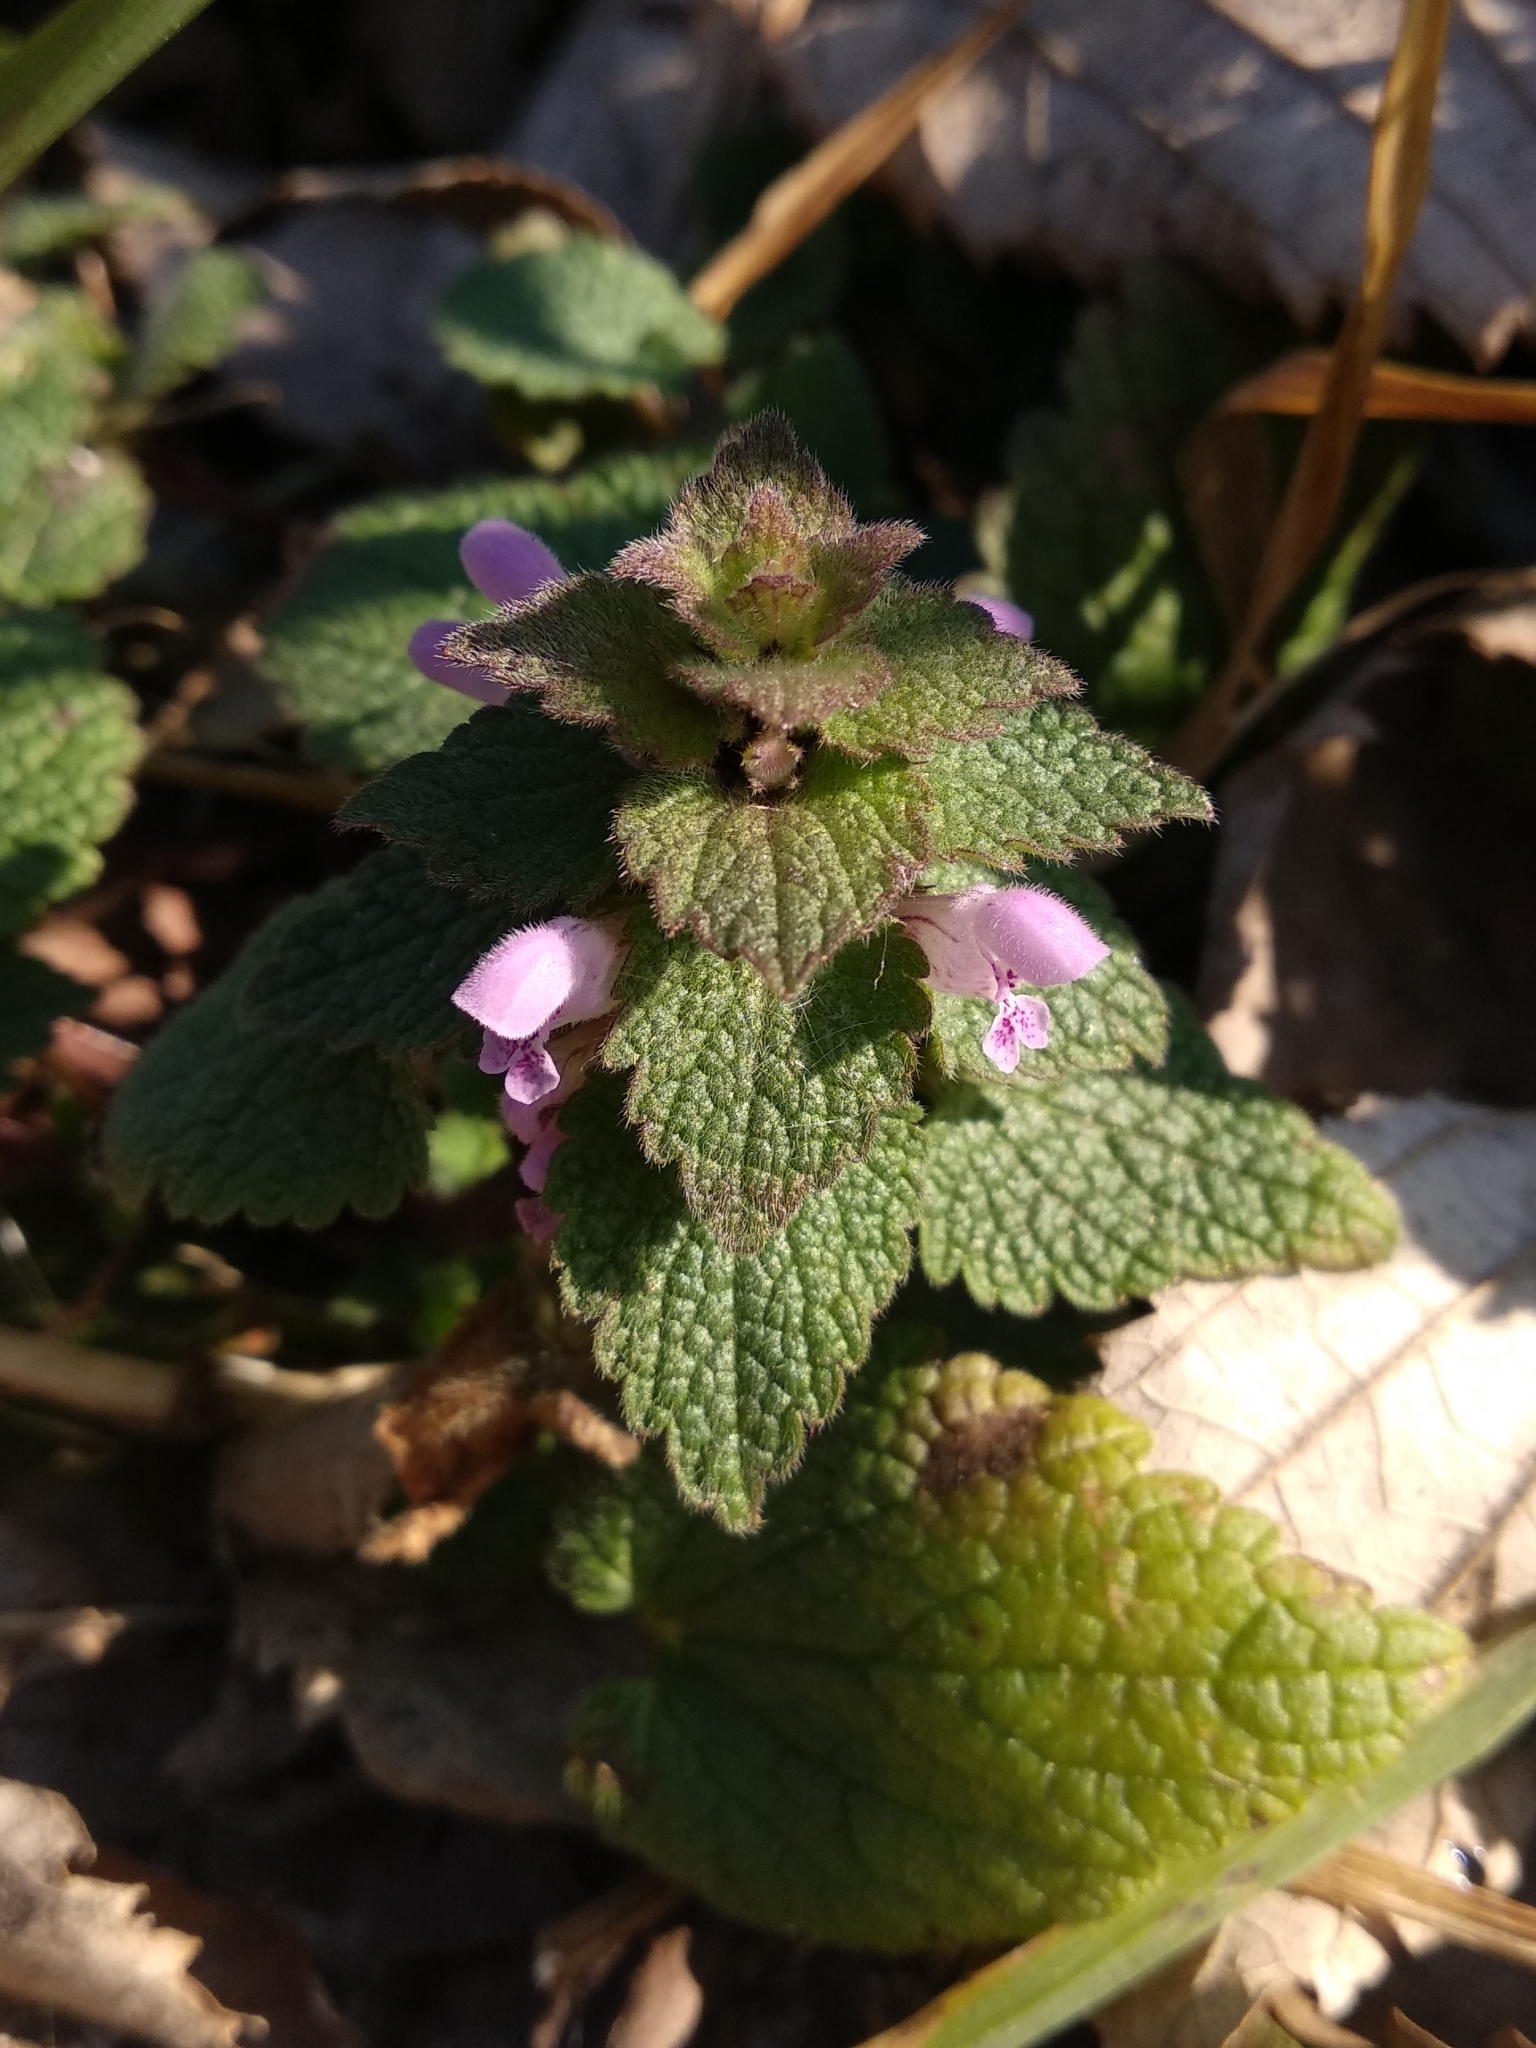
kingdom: Plantae
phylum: Tracheophyta
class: Magnoliopsida
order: Lamiales
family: Lamiaceae
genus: Lamium
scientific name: Lamium purpureum
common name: Red dead-nettle
